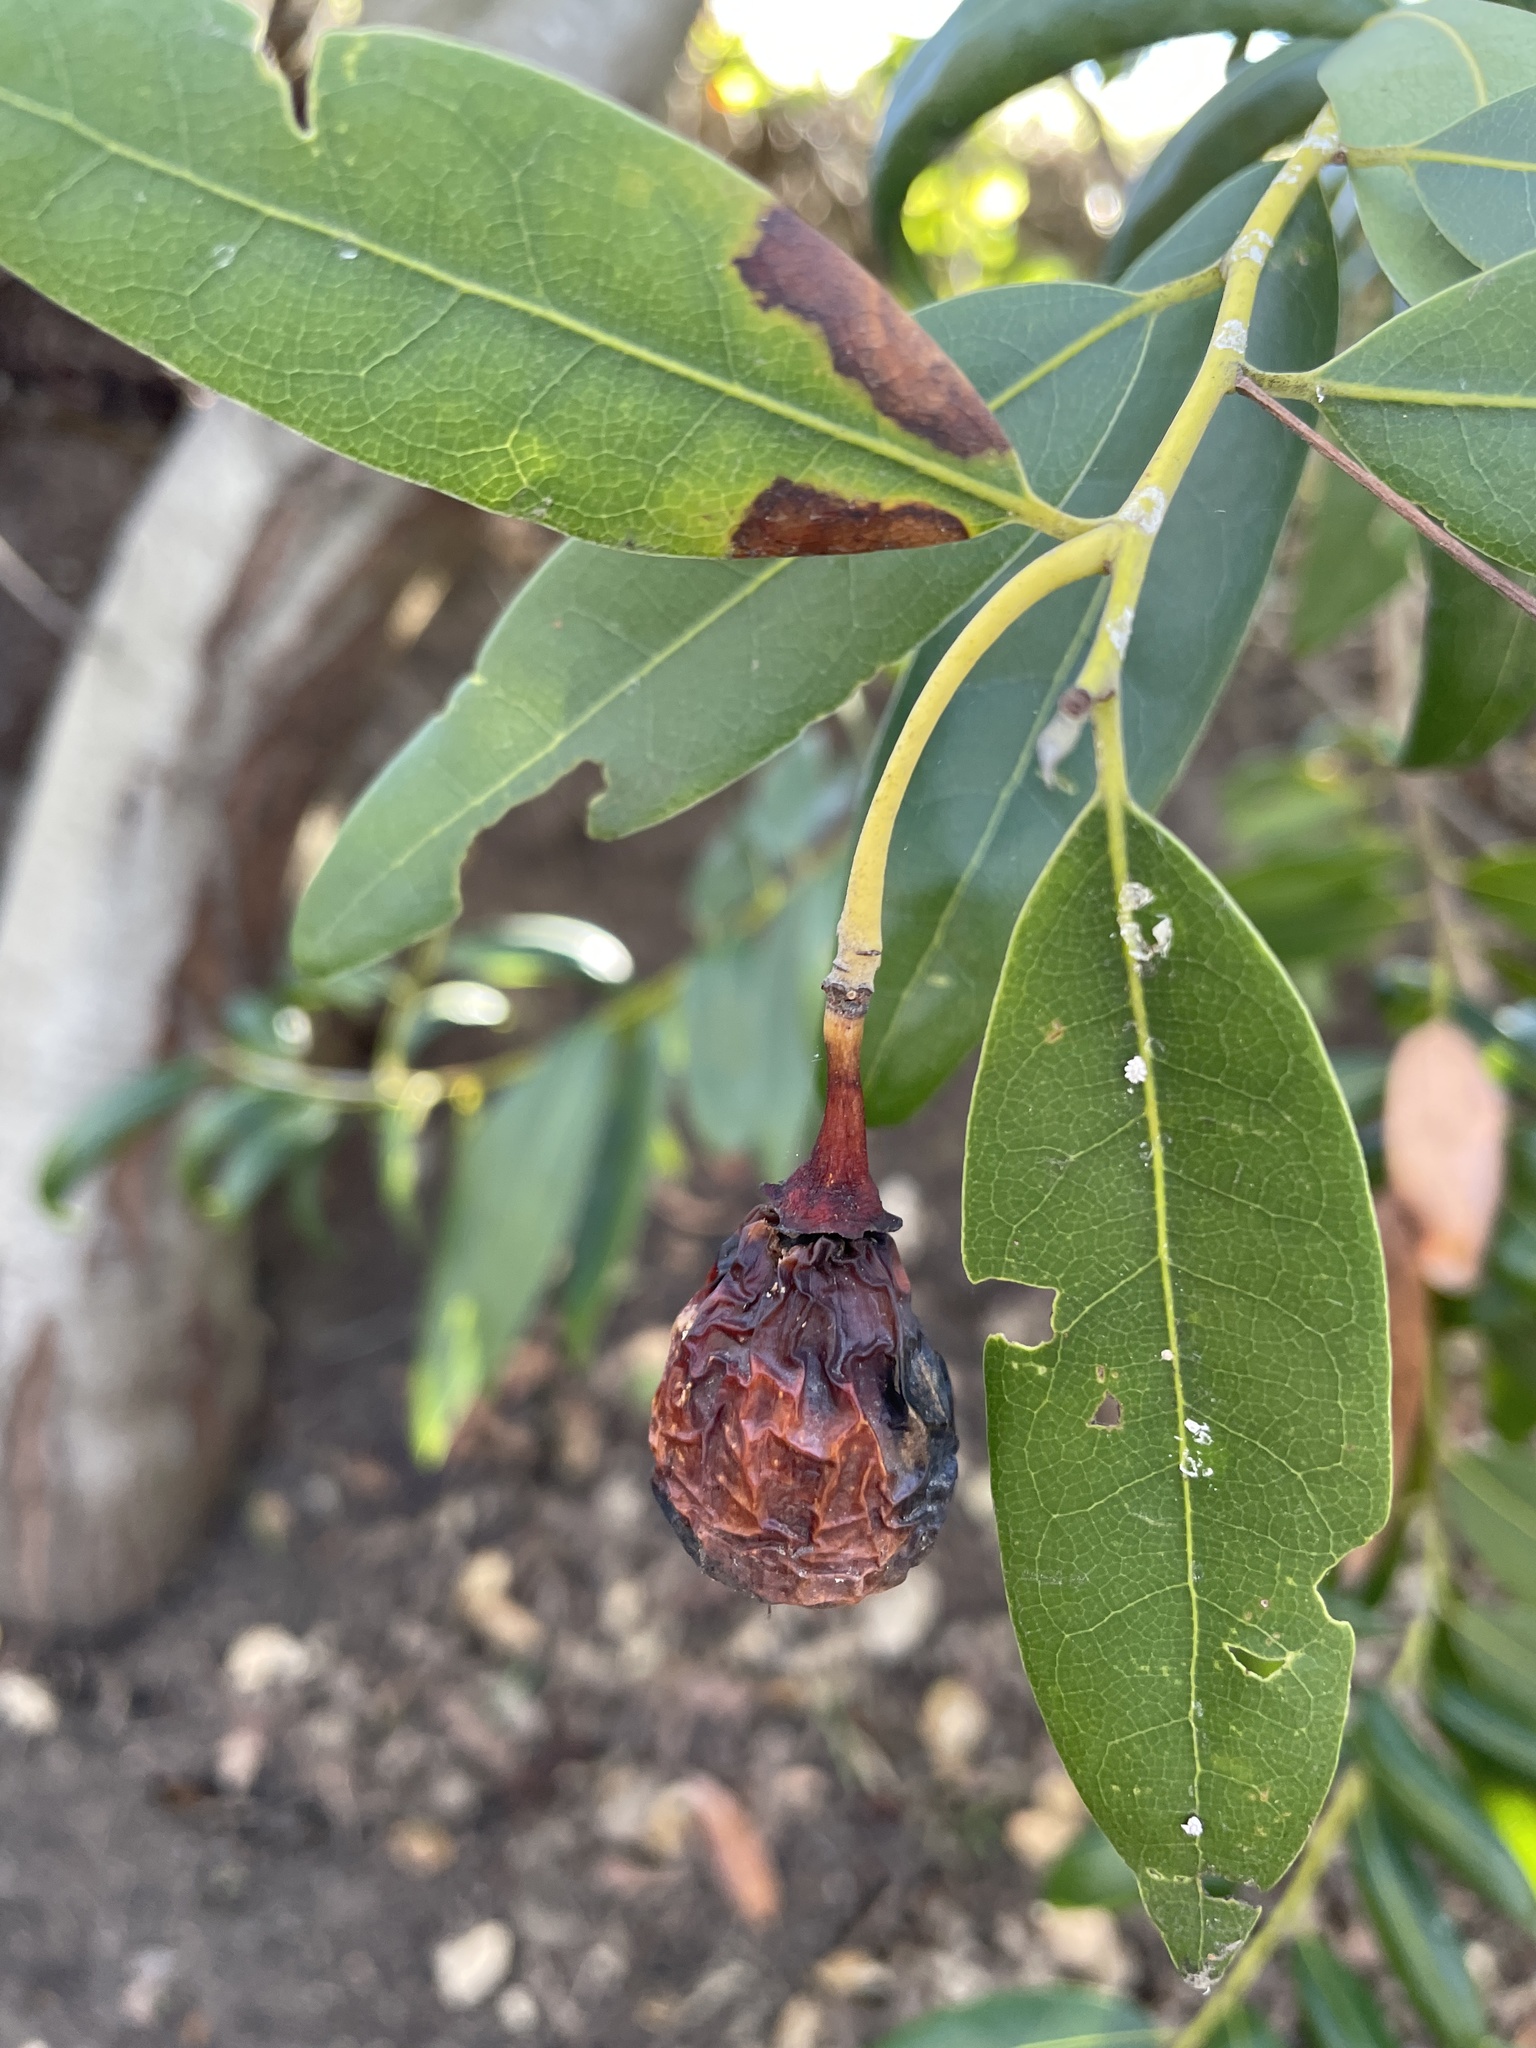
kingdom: Plantae
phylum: Tracheophyta
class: Magnoliopsida
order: Laurales
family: Lauraceae
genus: Umbellularia
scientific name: Umbellularia californica
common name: California bay
